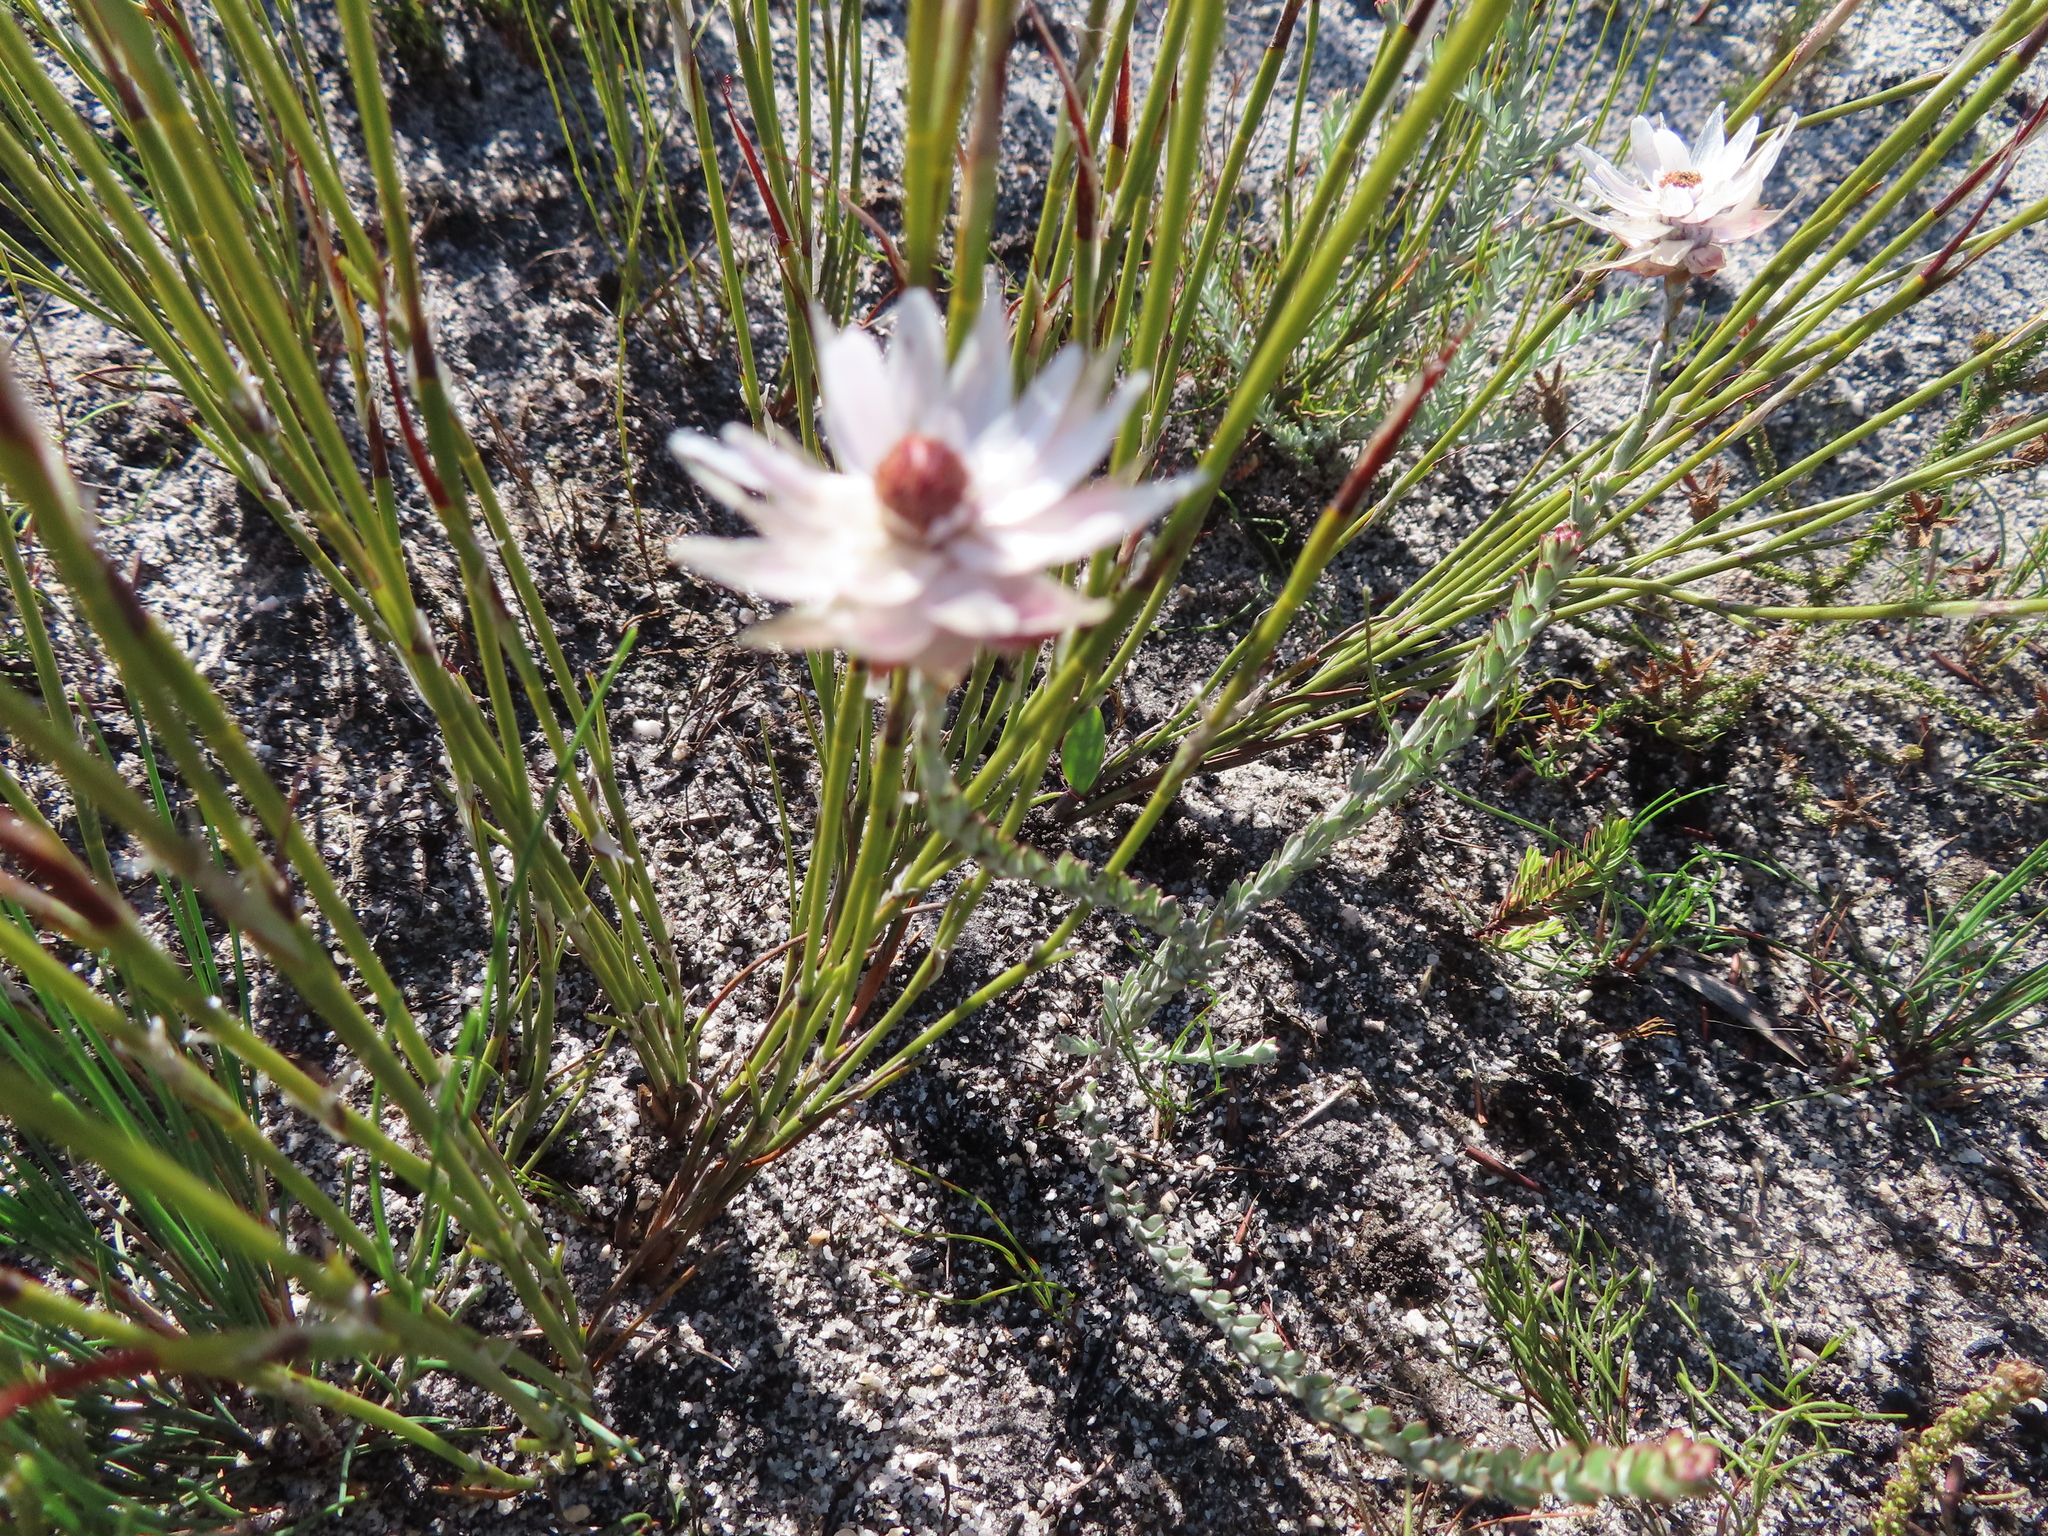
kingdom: Plantae
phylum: Tracheophyta
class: Magnoliopsida
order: Asterales
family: Asteraceae
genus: Syncarpha
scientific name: Syncarpha canescens
